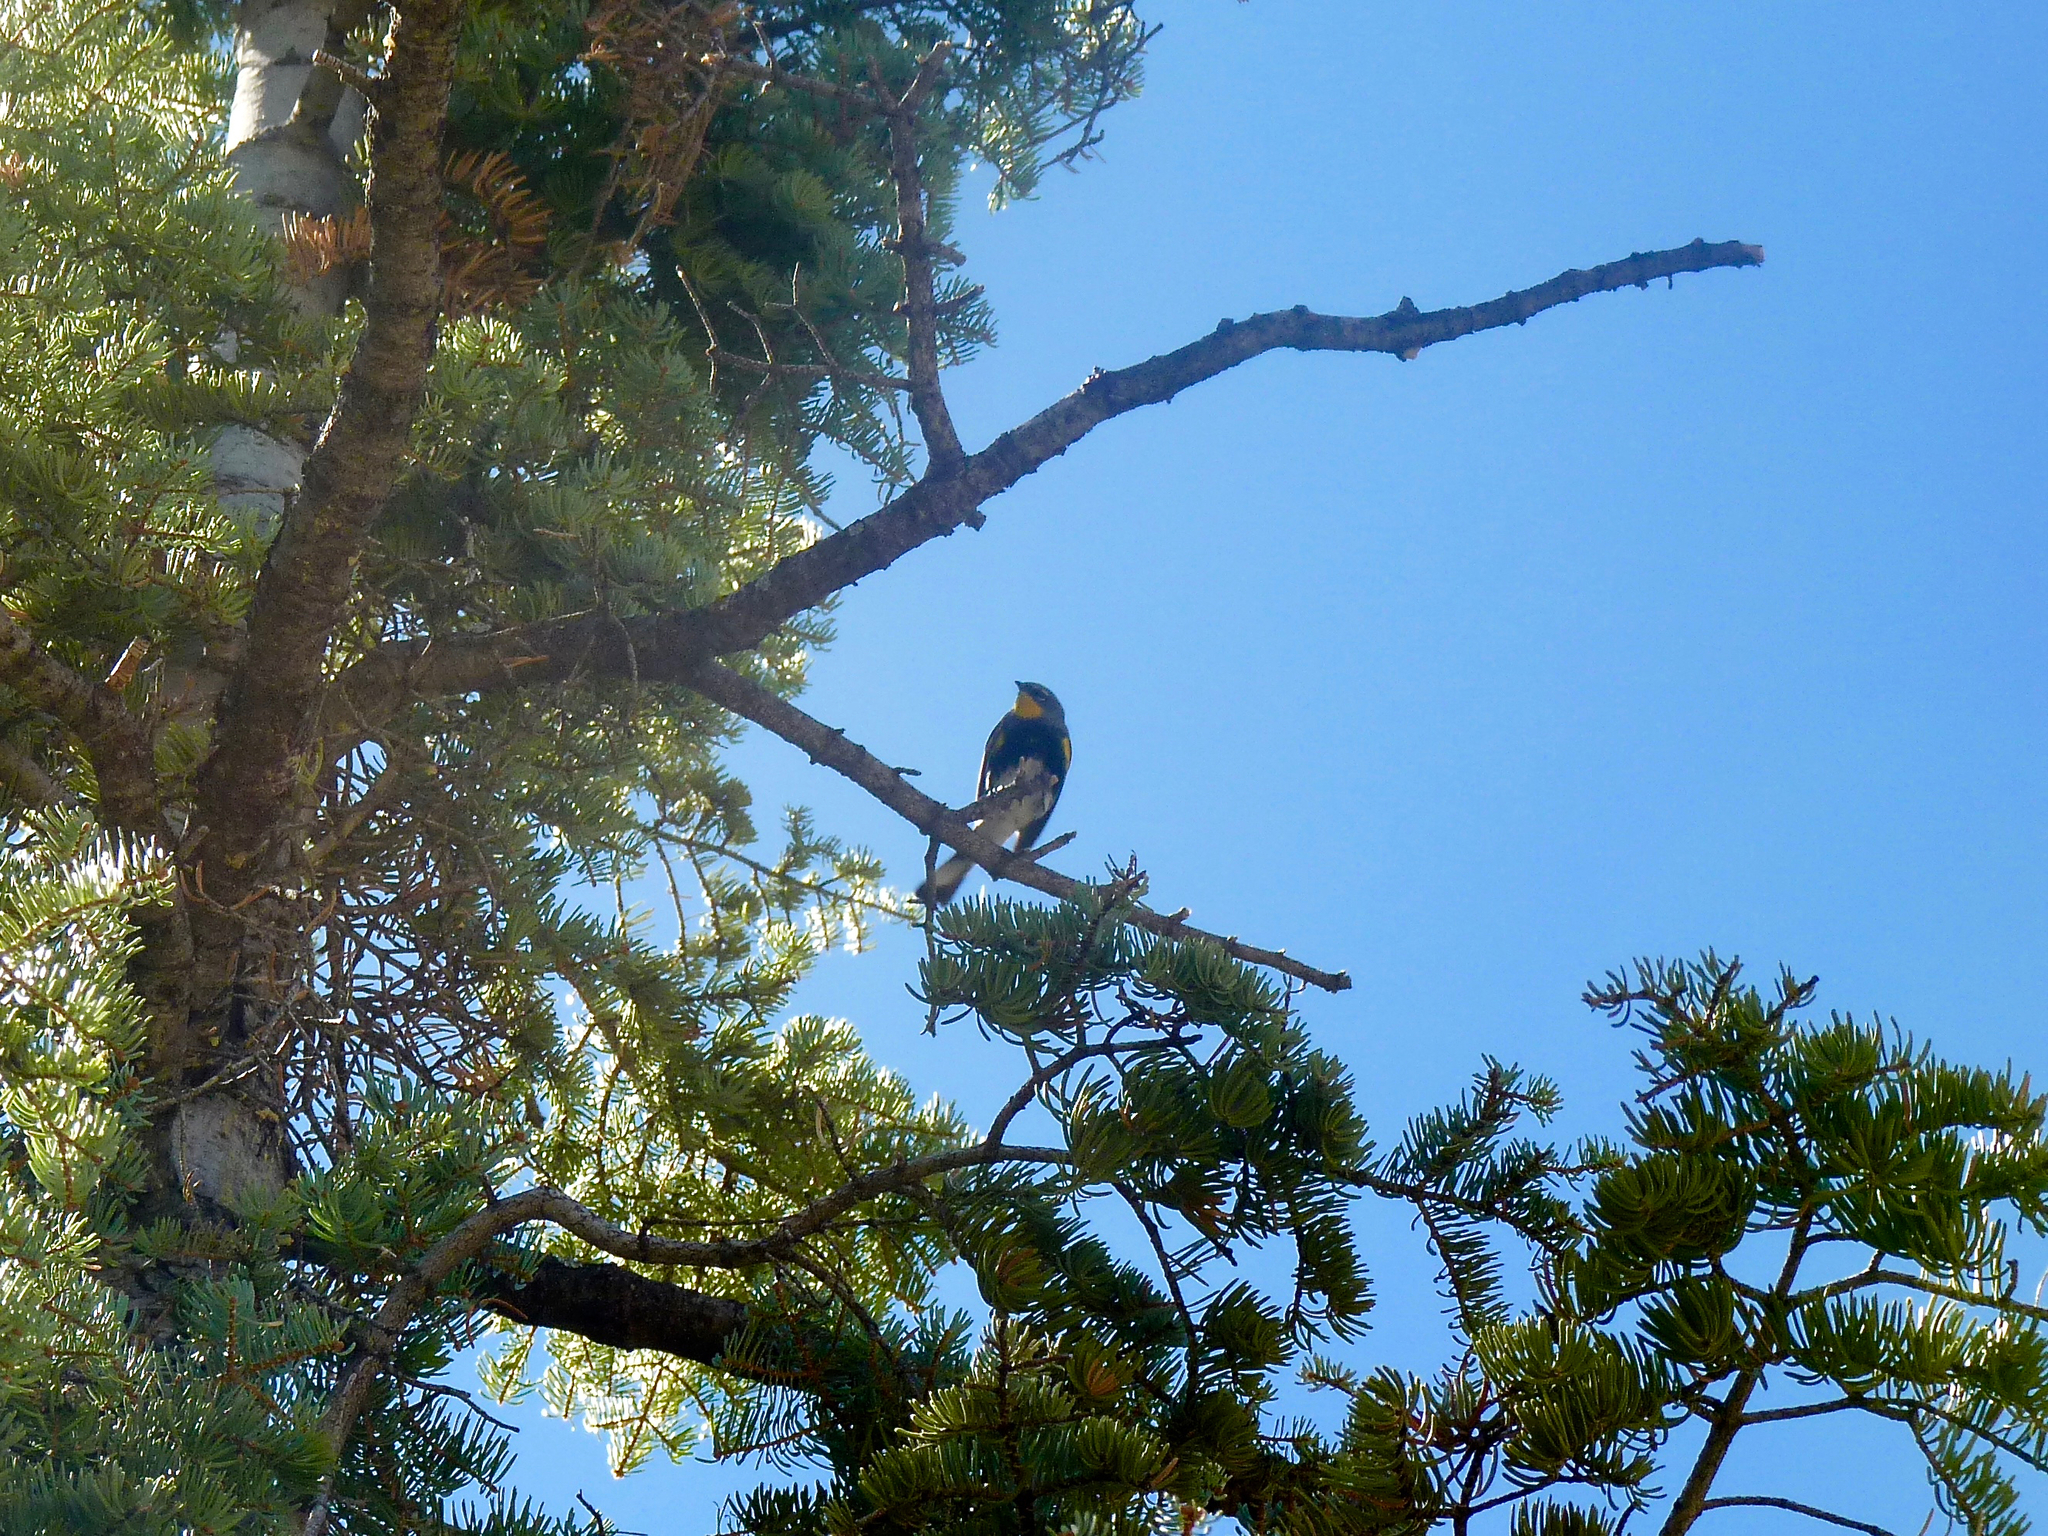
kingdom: Animalia
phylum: Chordata
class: Aves
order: Passeriformes
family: Parulidae
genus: Setophaga
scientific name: Setophaga coronata
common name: Myrtle warbler
